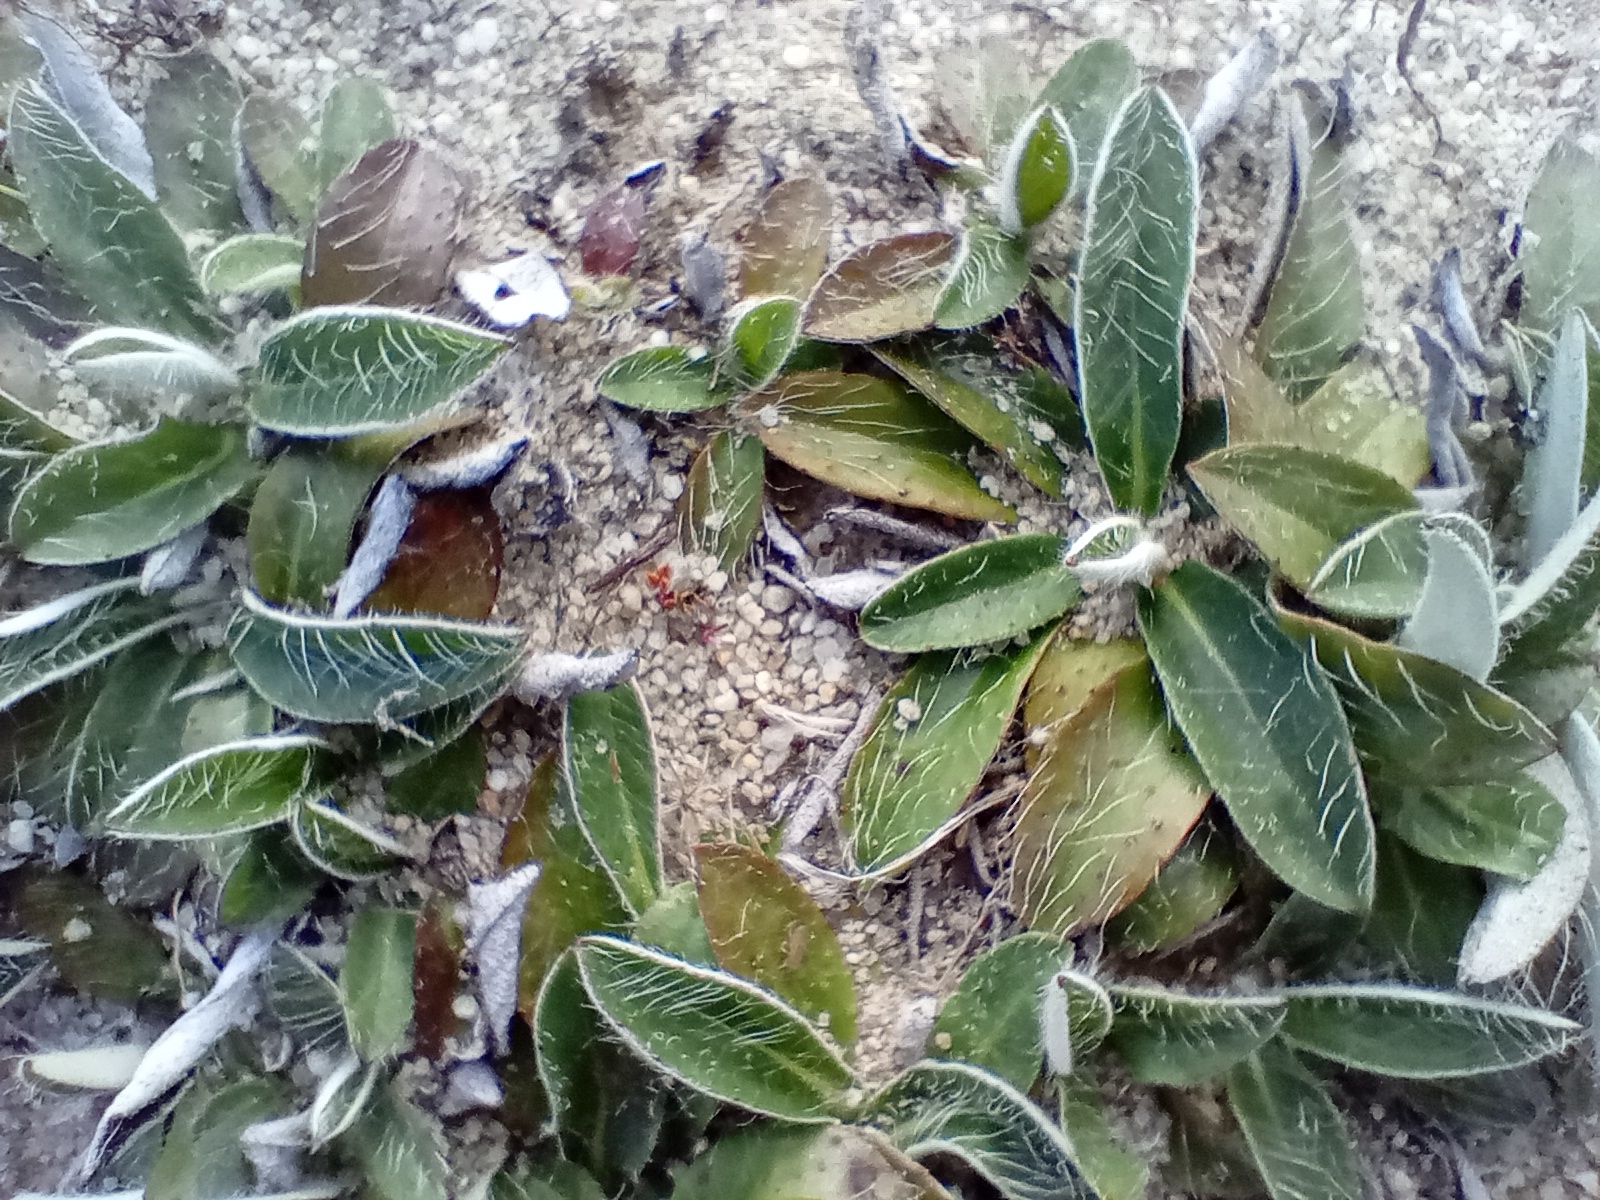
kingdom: Plantae
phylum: Tracheophyta
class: Magnoliopsida
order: Asterales
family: Asteraceae
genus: Pilosella
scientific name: Pilosella officinarum
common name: Mouse-ear hawkweed
